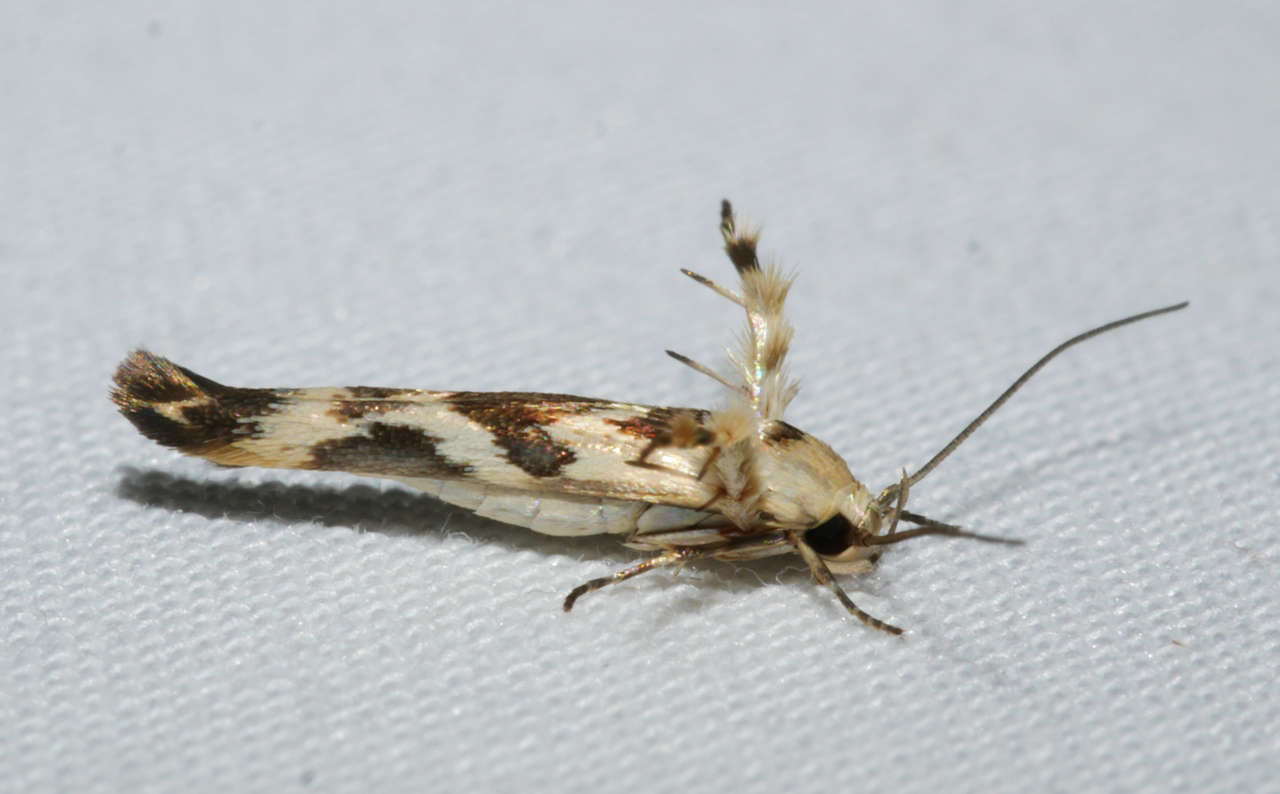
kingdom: Animalia
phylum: Arthropoda
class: Insecta
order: Lepidoptera
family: Stathmopodidae
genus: Stathmopoda
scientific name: Stathmopoda melanochra
